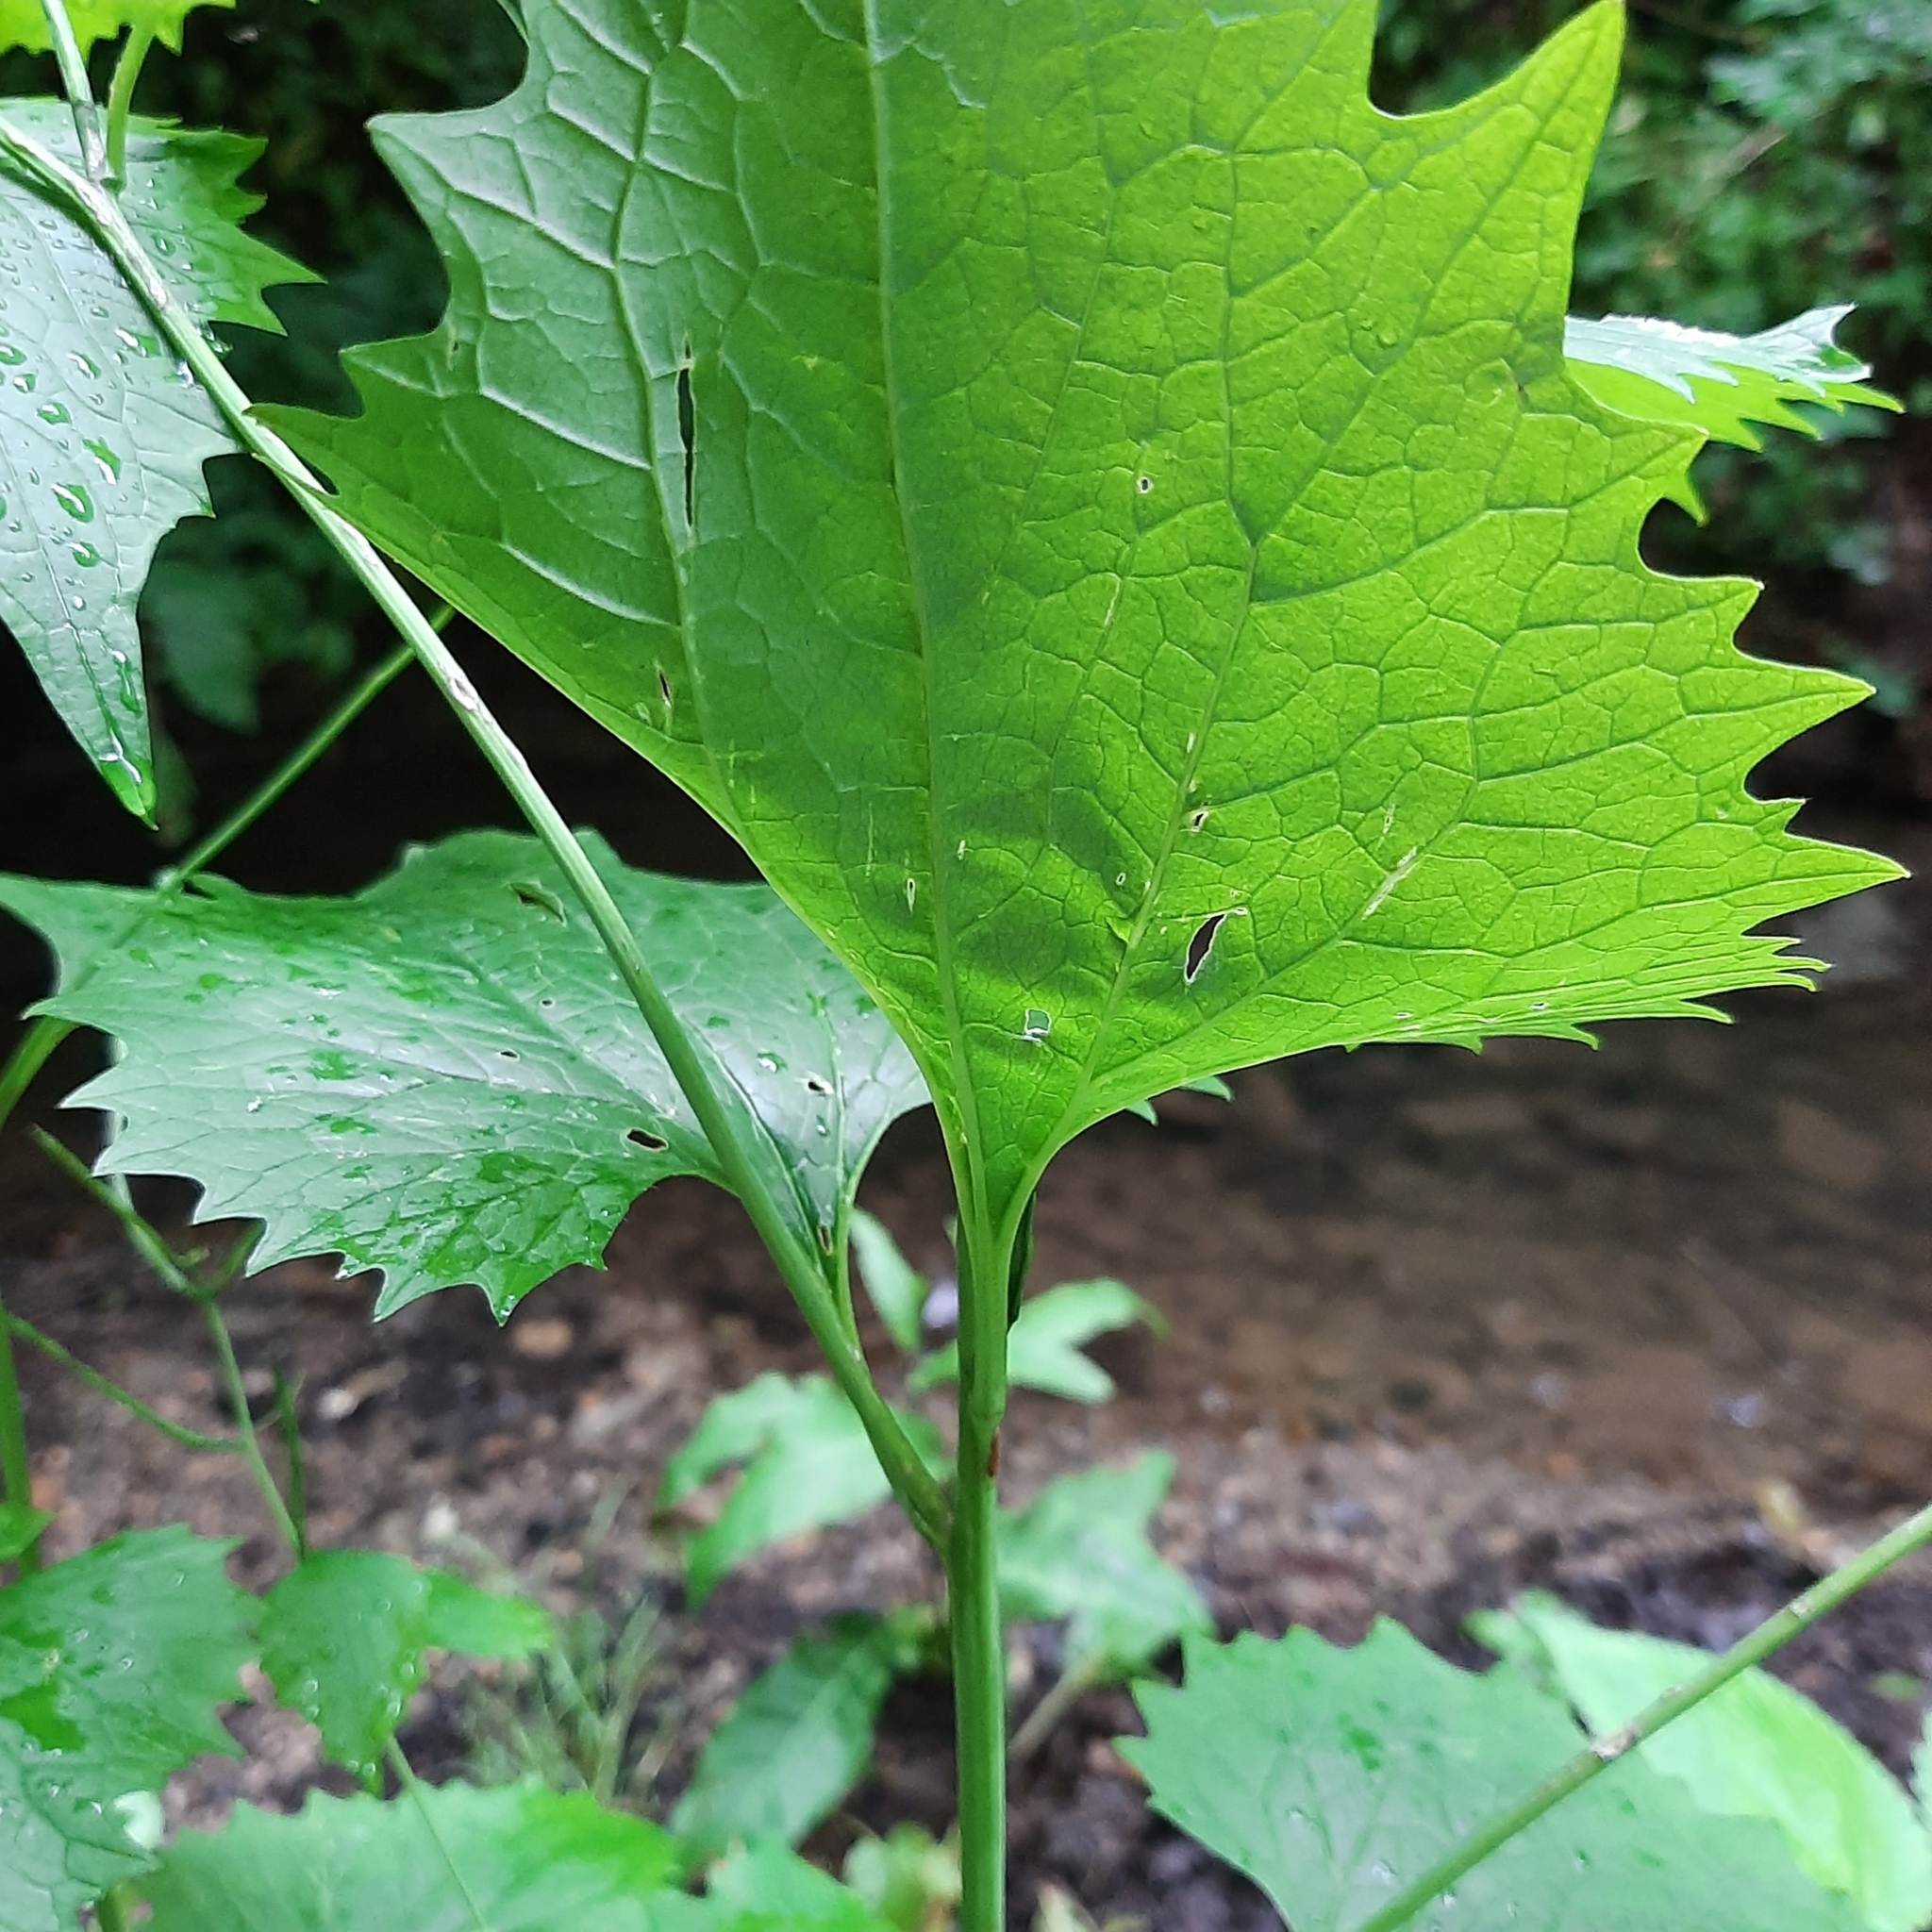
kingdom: Plantae
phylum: Tracheophyta
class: Magnoliopsida
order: Brassicales
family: Brassicaceae
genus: Alliaria
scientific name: Alliaria petiolata
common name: Garlic mustard
